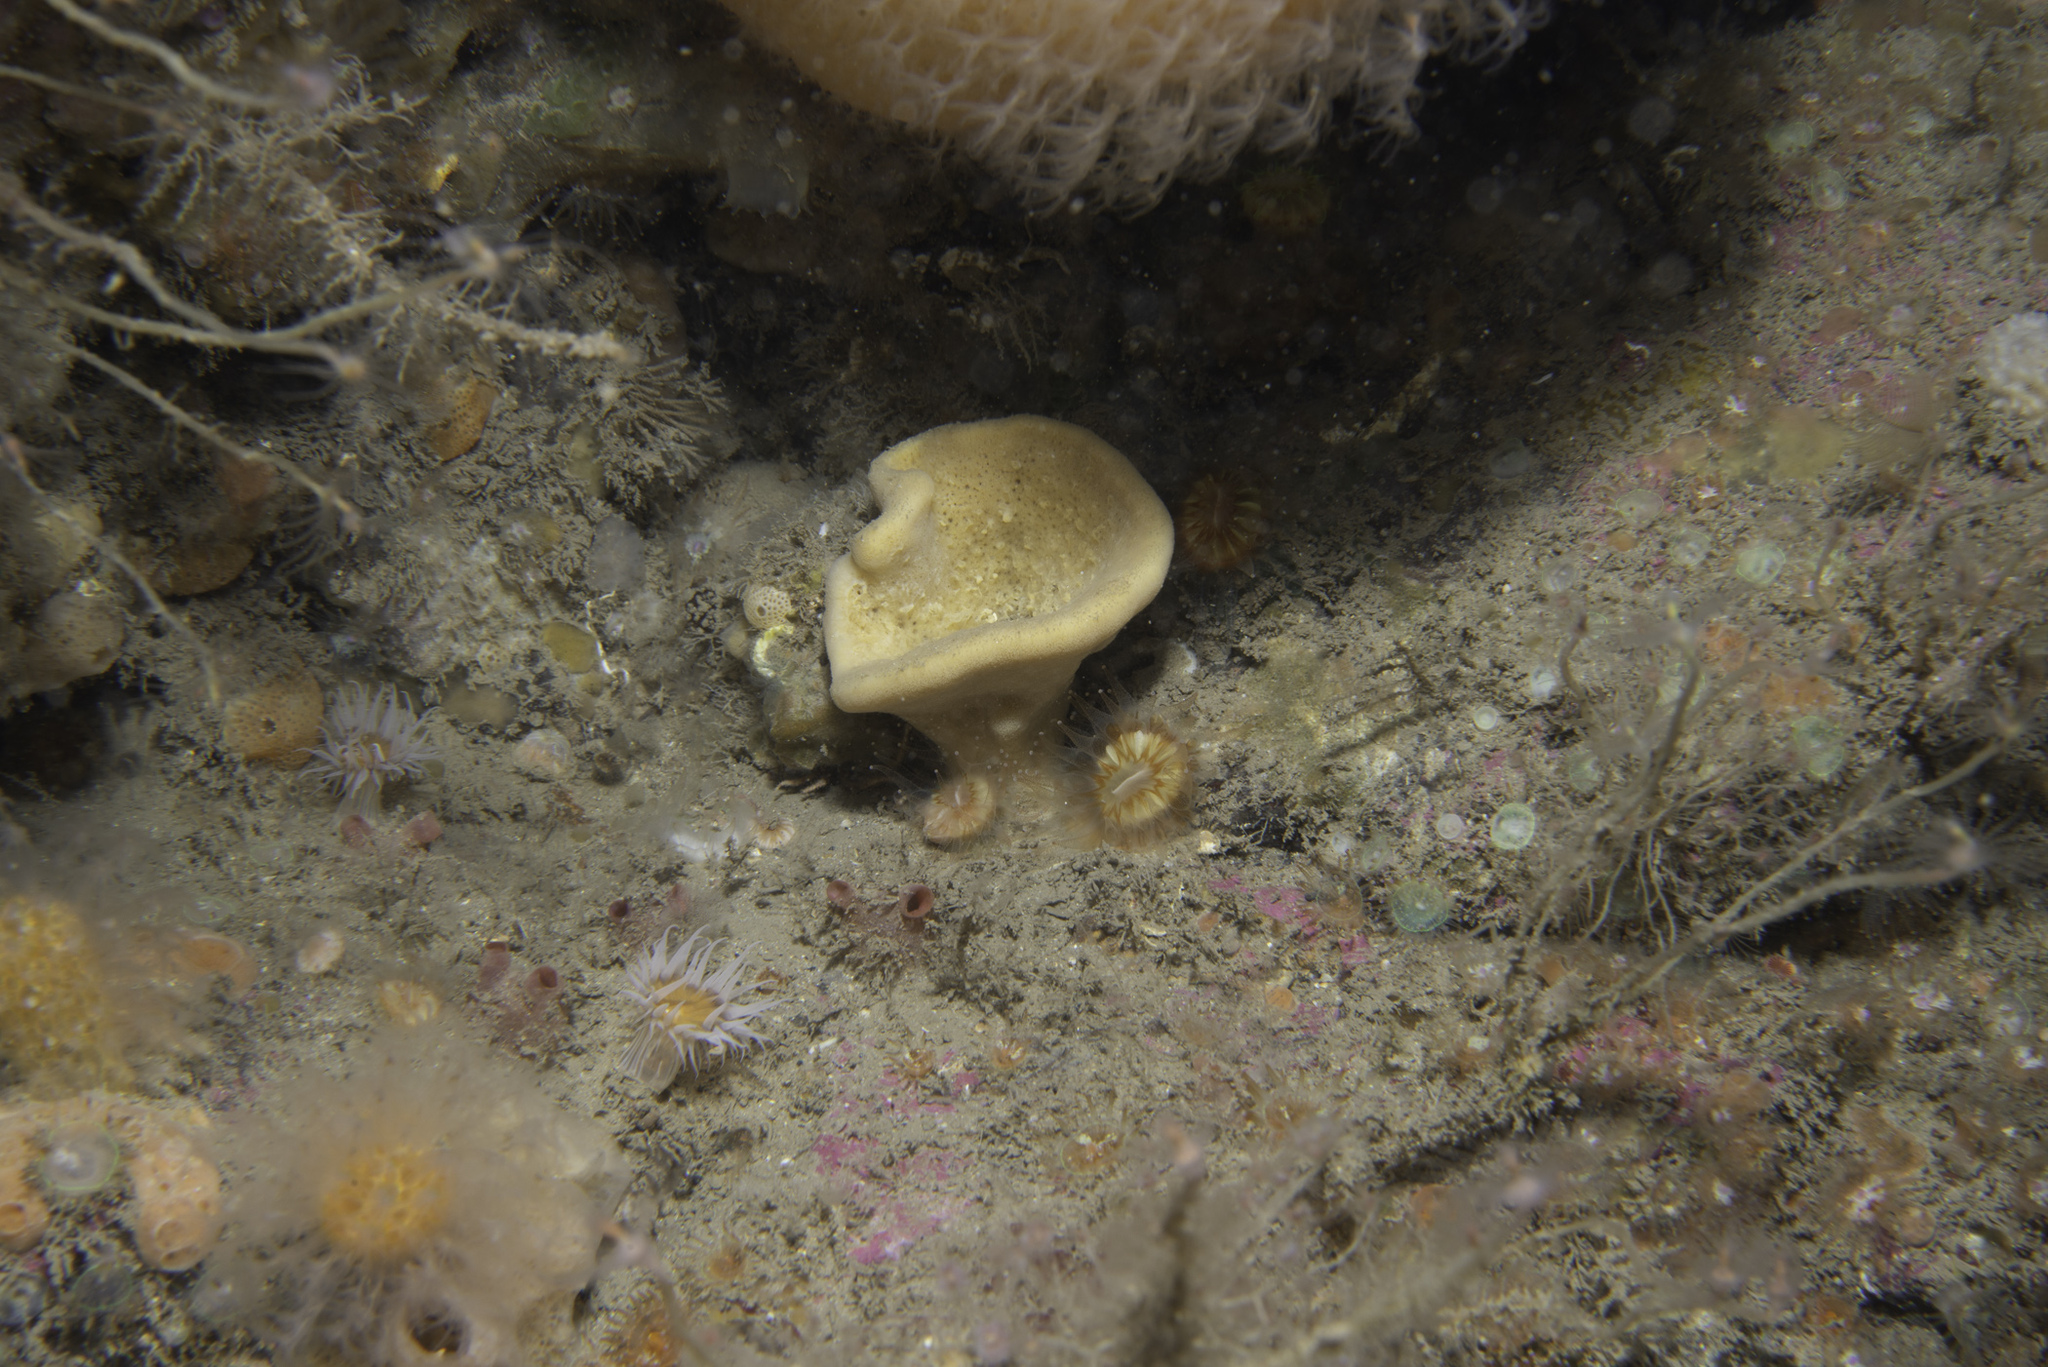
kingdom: Animalia
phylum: Porifera
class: Demospongiae
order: Axinellida
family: Axinellidae
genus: Axinella
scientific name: Axinella infundibuliformis
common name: North atlantic cup sponge
